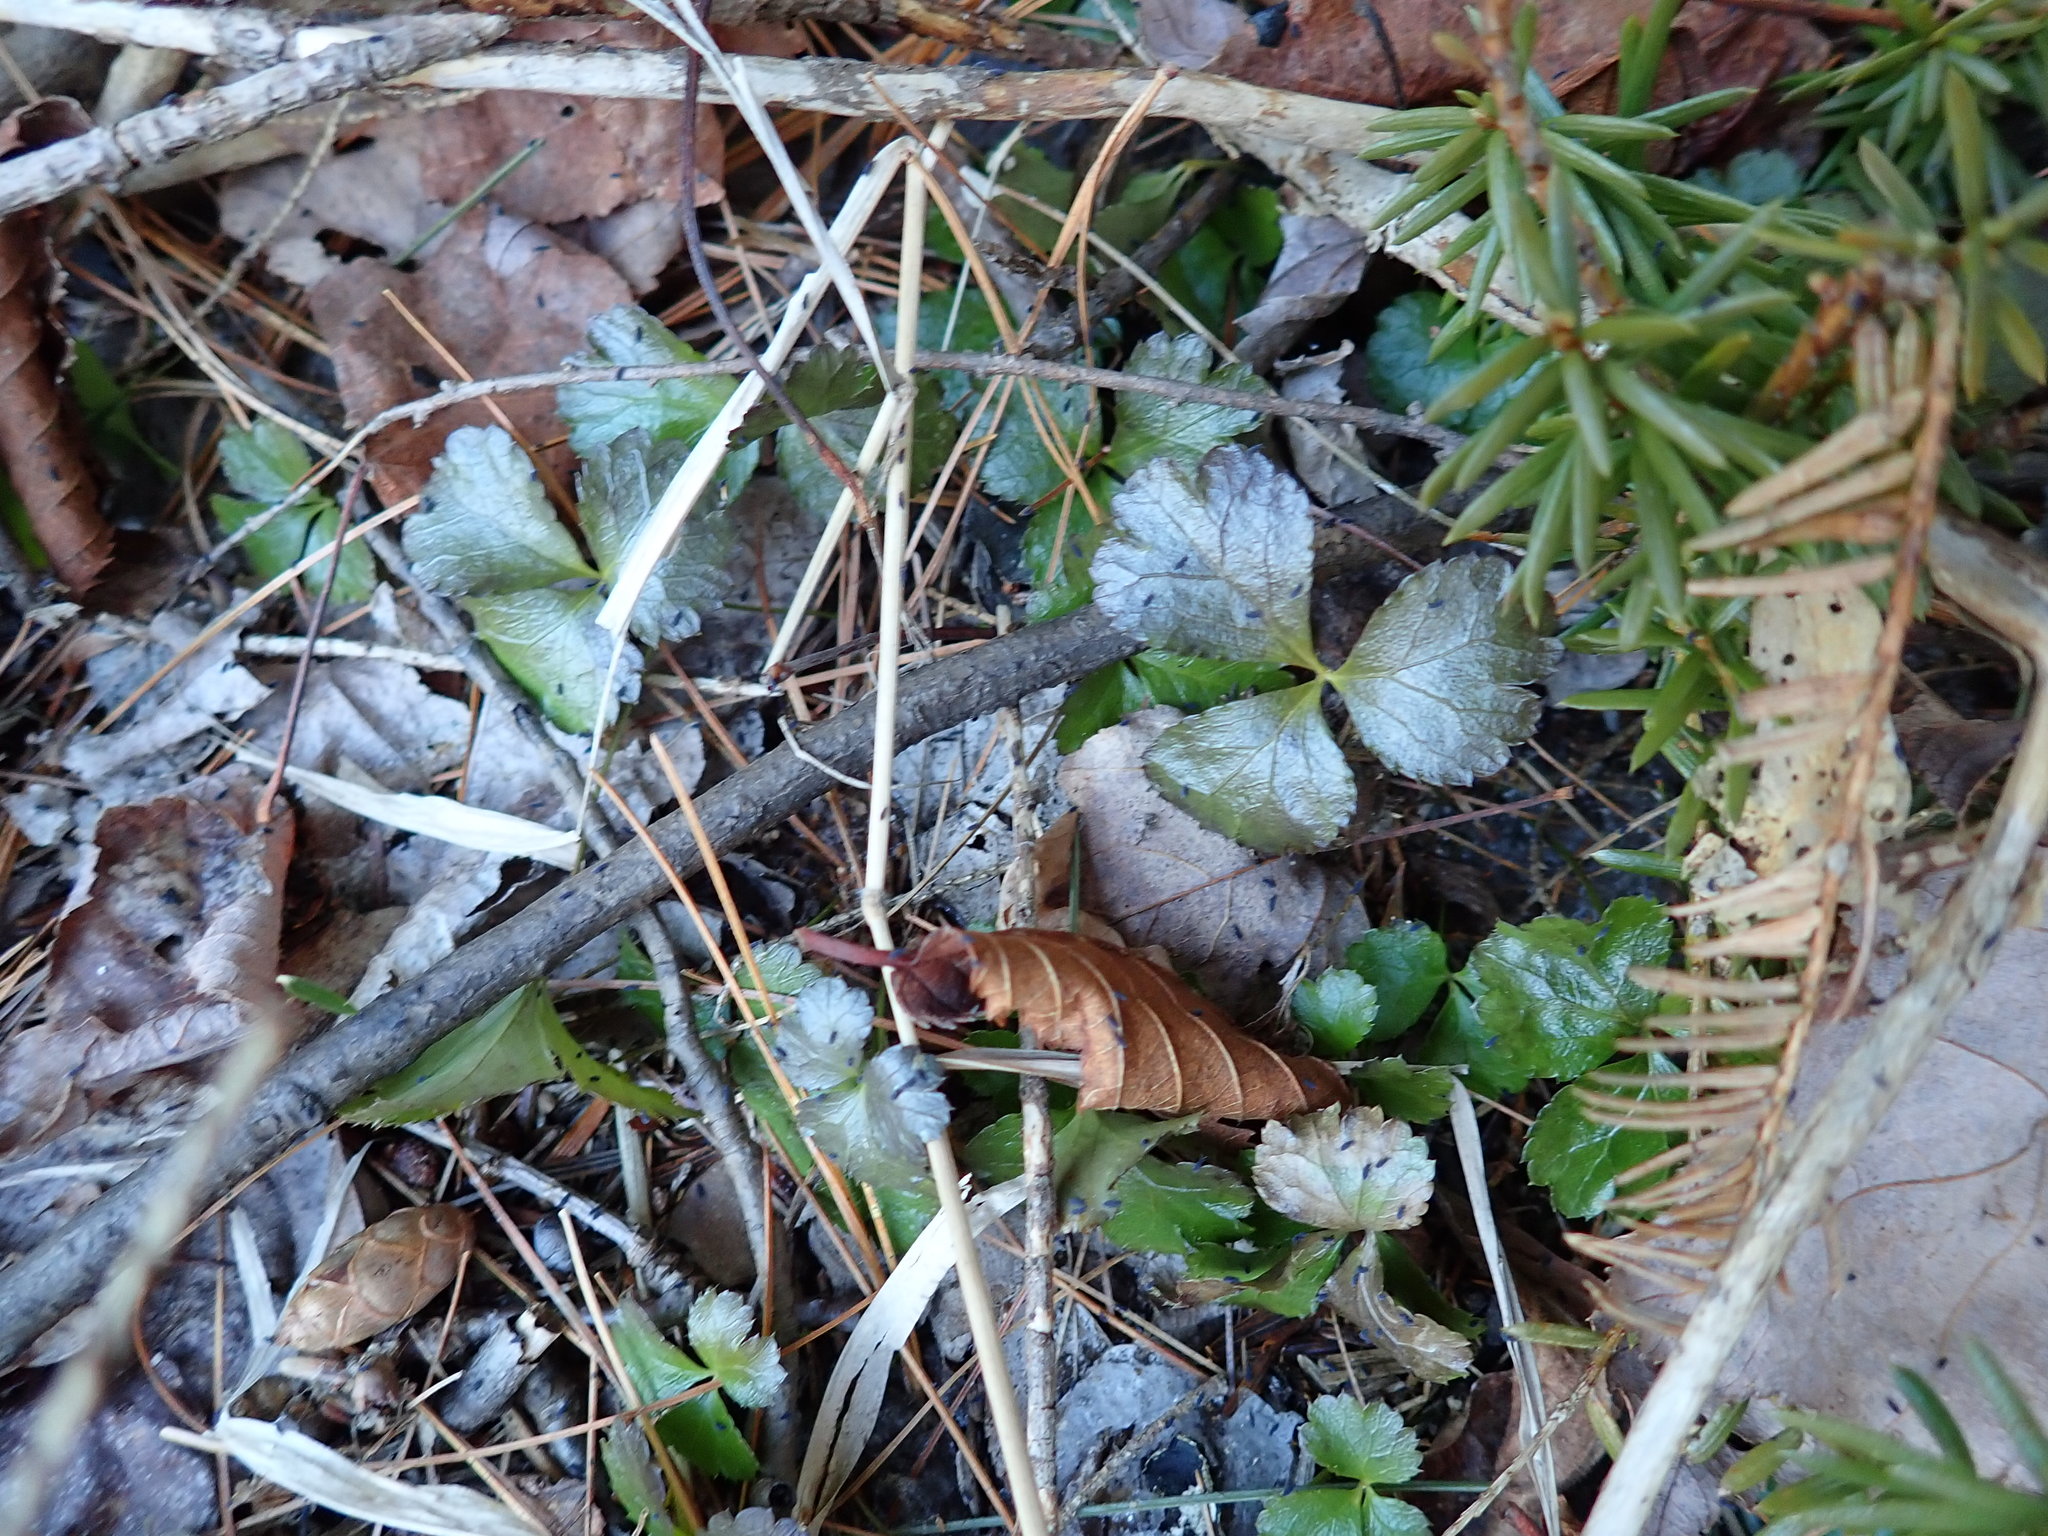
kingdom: Plantae
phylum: Tracheophyta
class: Magnoliopsida
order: Ranunculales
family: Ranunculaceae
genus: Coptis
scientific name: Coptis trifolia
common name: Canker-root
